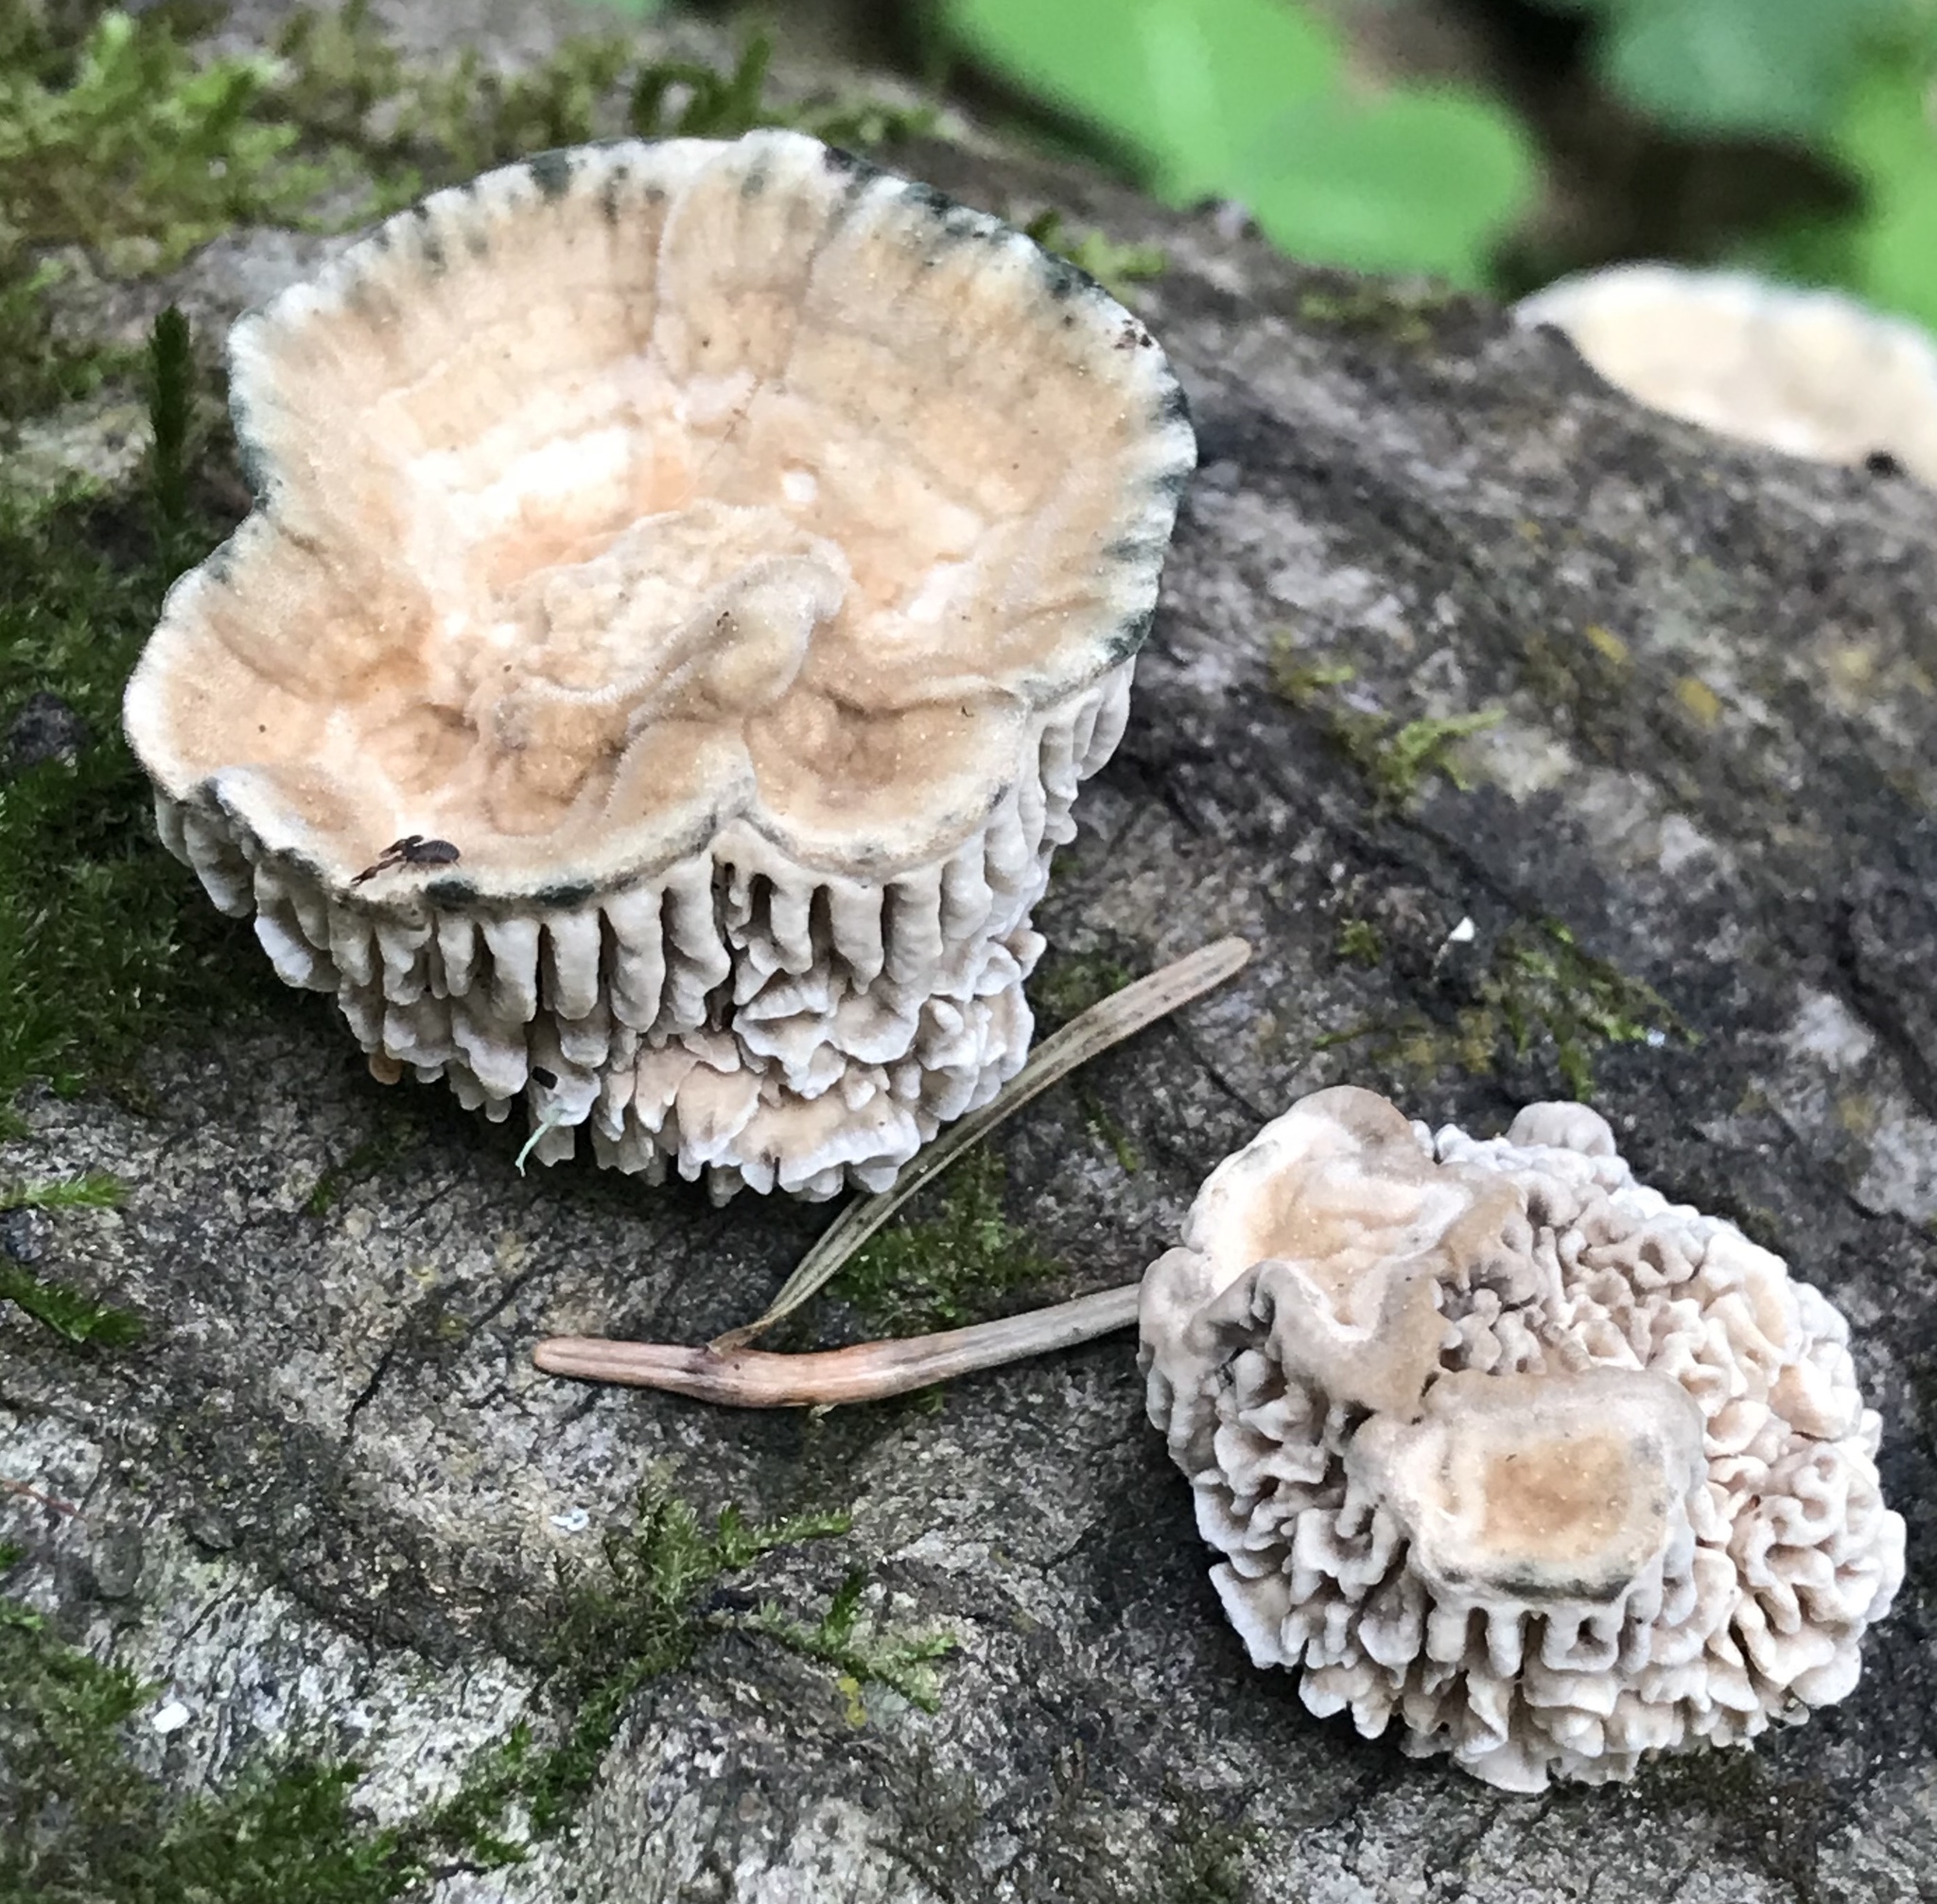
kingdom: Fungi
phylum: Basidiomycota
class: Agaricomycetes
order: Polyporales
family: Polyporaceae
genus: Lenzites
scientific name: Lenzites betulinus
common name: Birch mazegill
